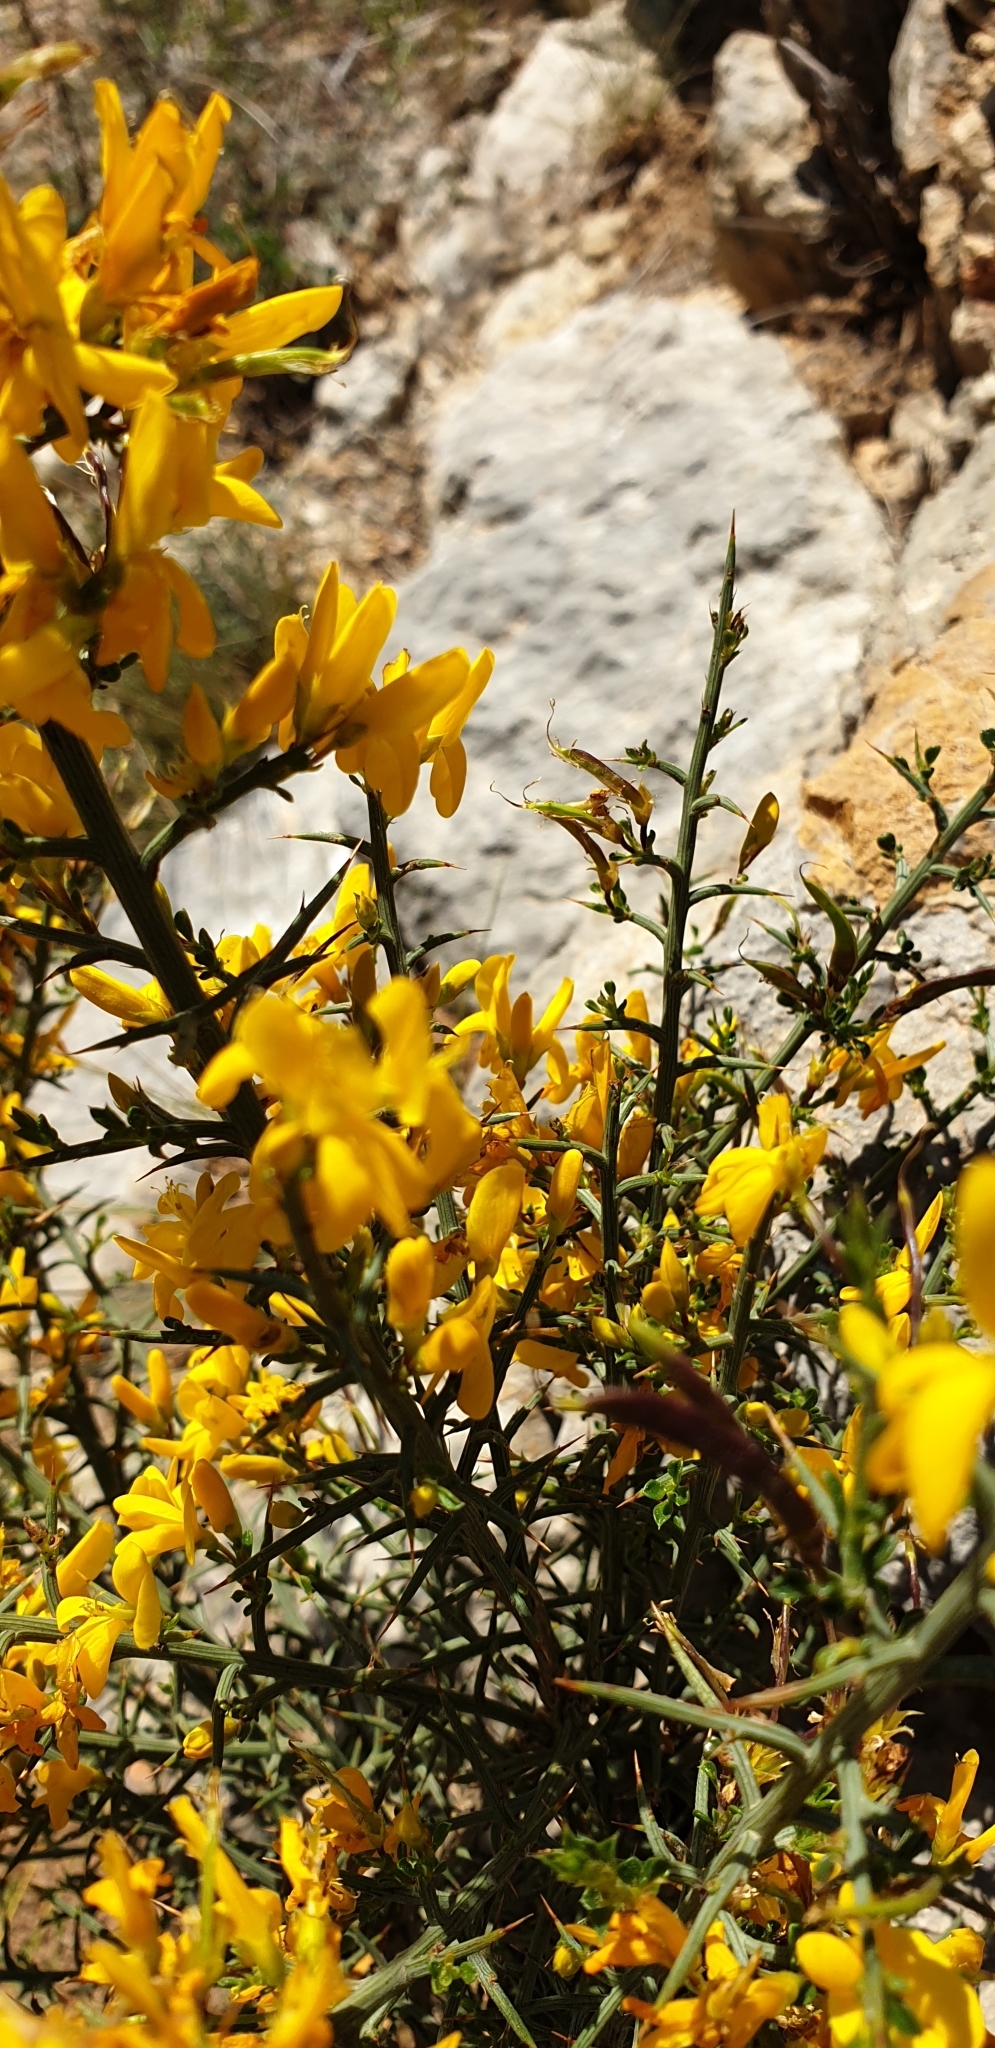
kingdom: Plantae
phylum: Tracheophyta
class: Magnoliopsida
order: Fabales
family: Fabaceae
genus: Genista
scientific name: Genista scorpius
